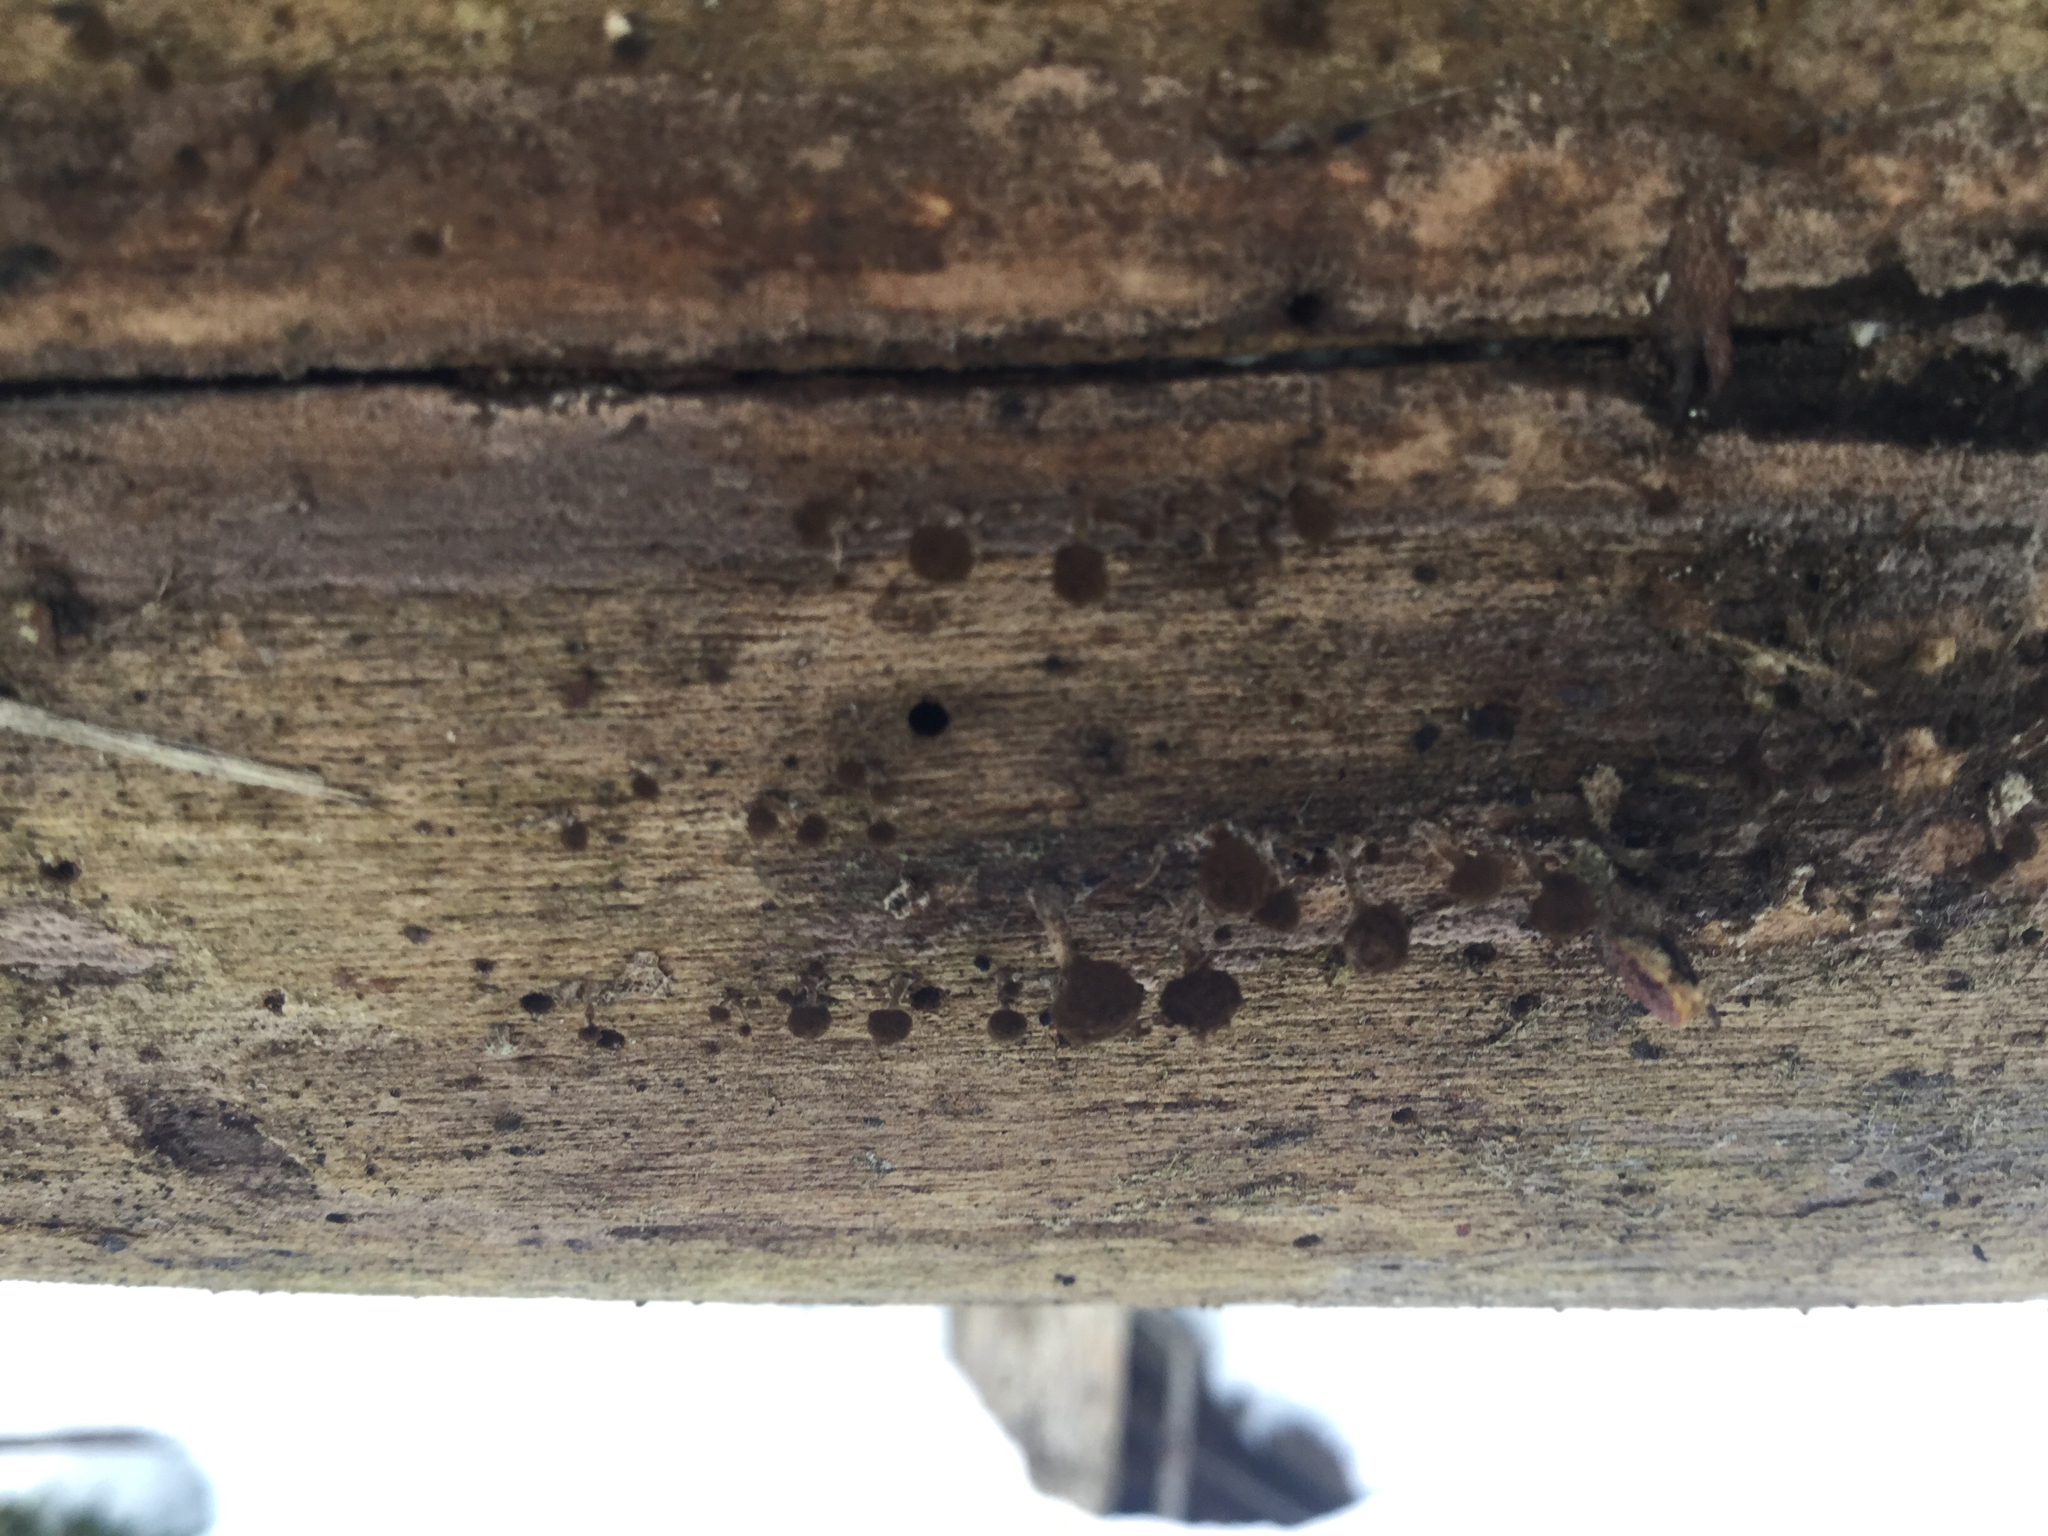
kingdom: Fungi
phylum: Basidiomycota
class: Atractiellomycetes
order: Atractiellales
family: Phleogenaceae
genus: Phleogena
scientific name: Phleogena faginea
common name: Fenugreek stalkball
